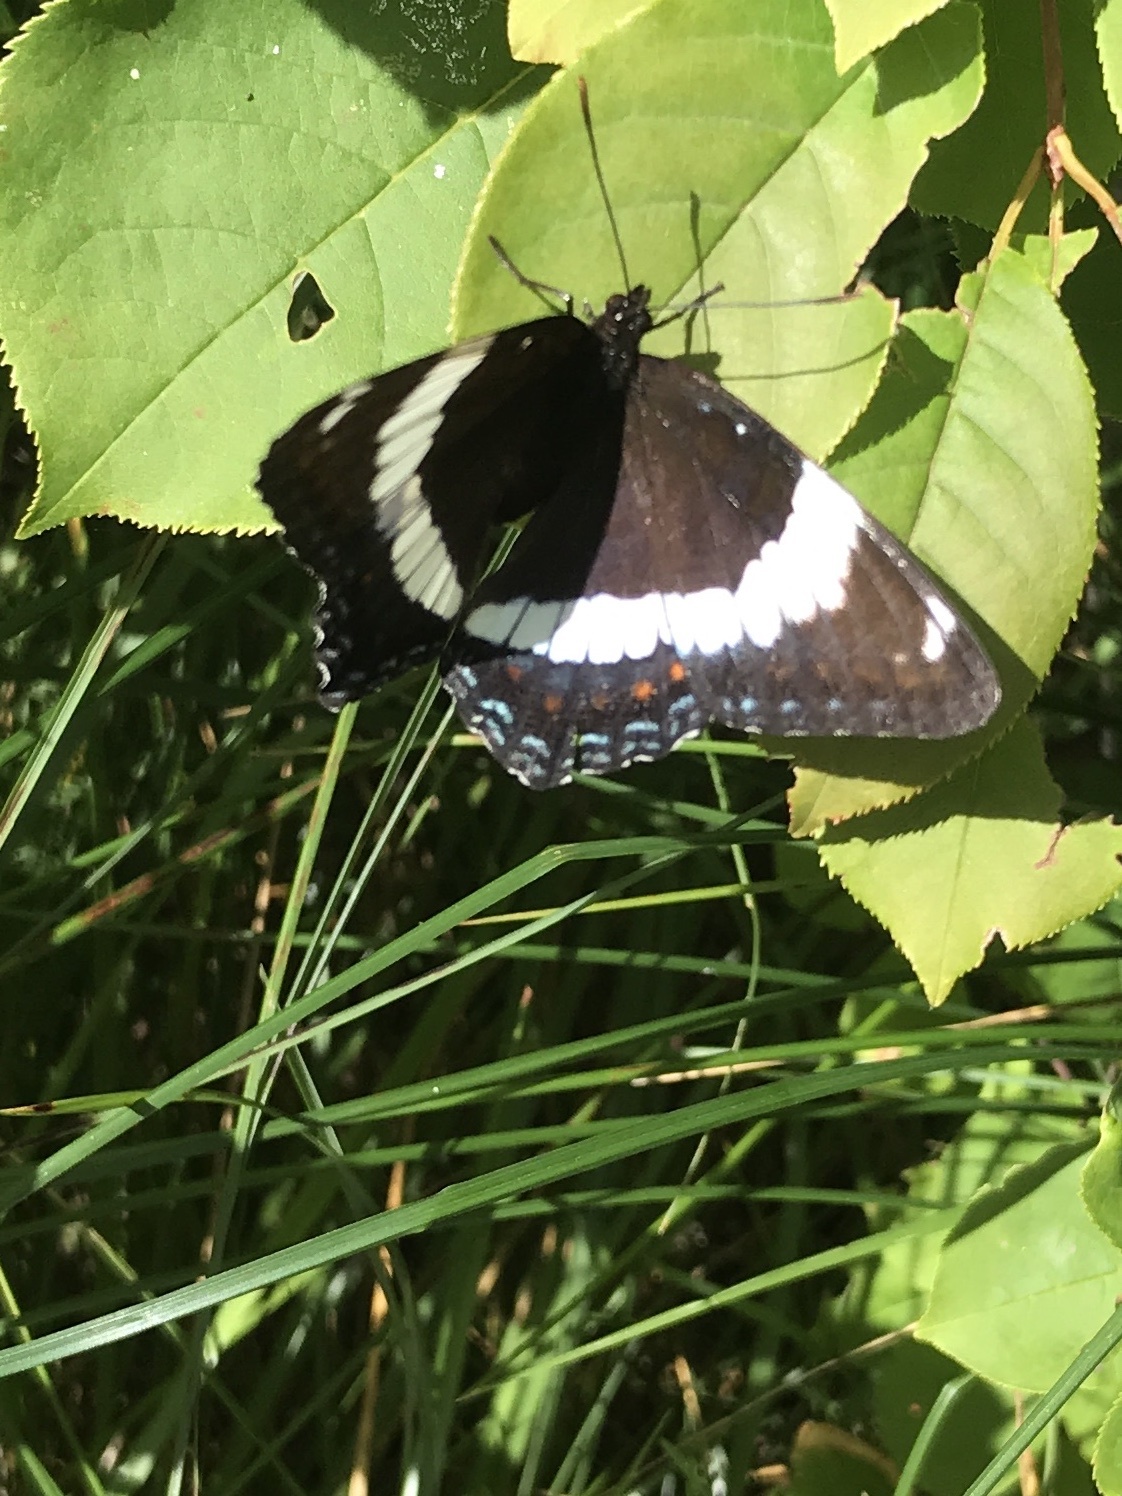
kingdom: Animalia
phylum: Arthropoda
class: Insecta
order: Lepidoptera
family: Nymphalidae
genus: Limenitis
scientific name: Limenitis arthemis
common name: Red-spotted admiral
